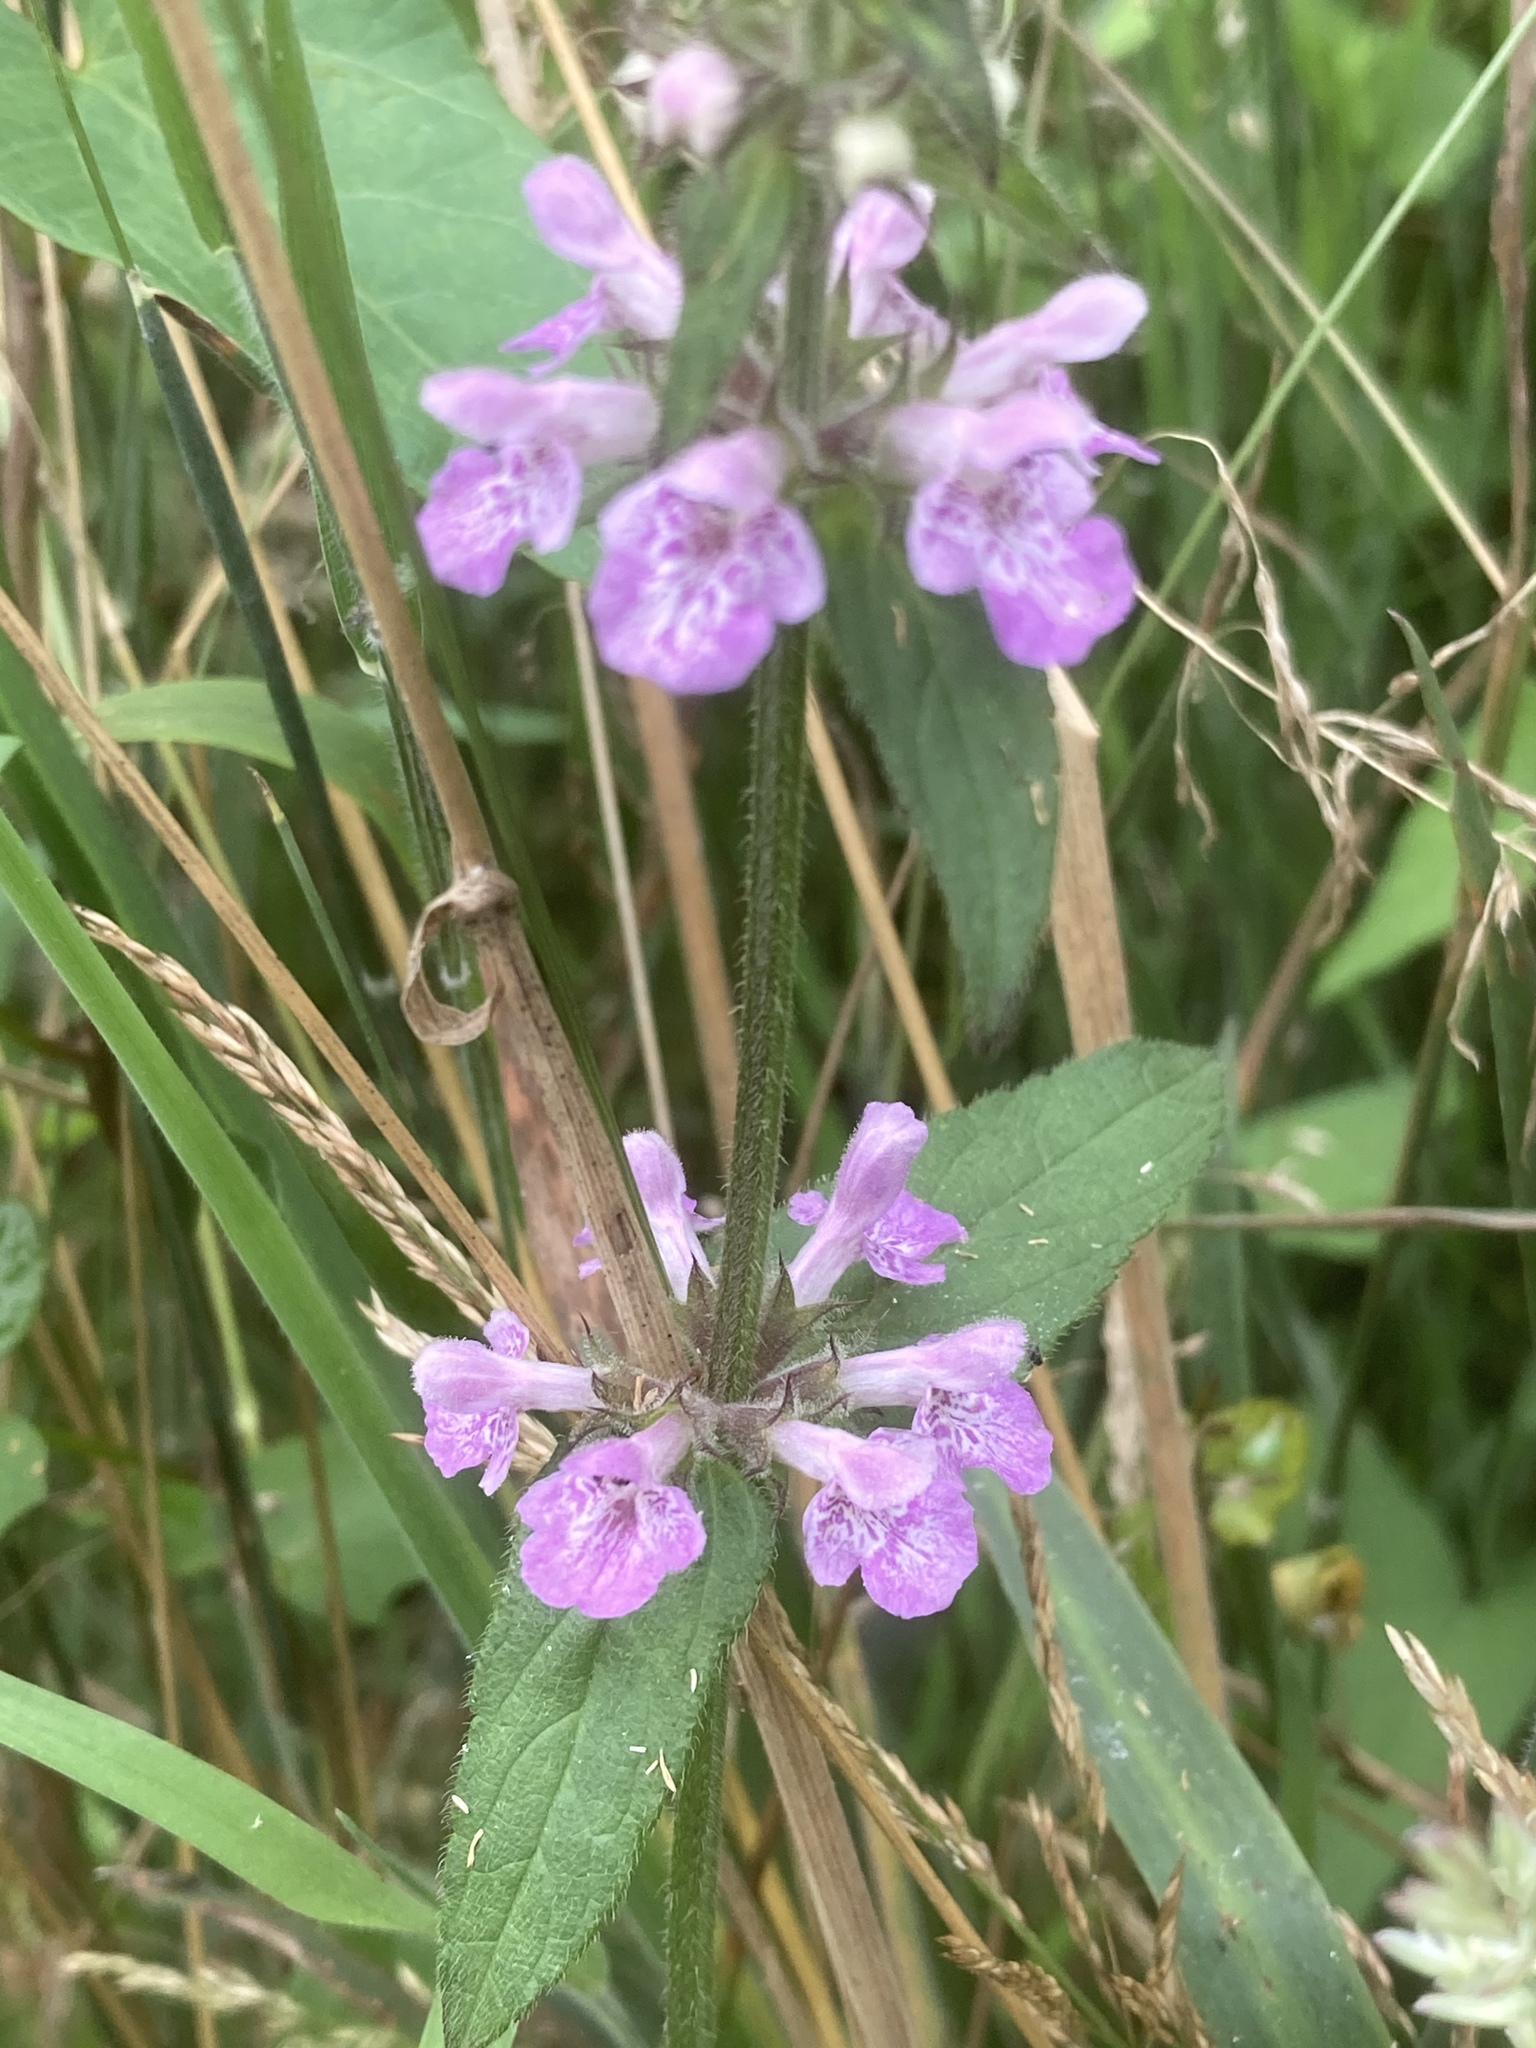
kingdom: Plantae
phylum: Tracheophyta
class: Magnoliopsida
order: Lamiales
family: Lamiaceae
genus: Stachys
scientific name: Stachys palustris
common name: Marsh woundwort
